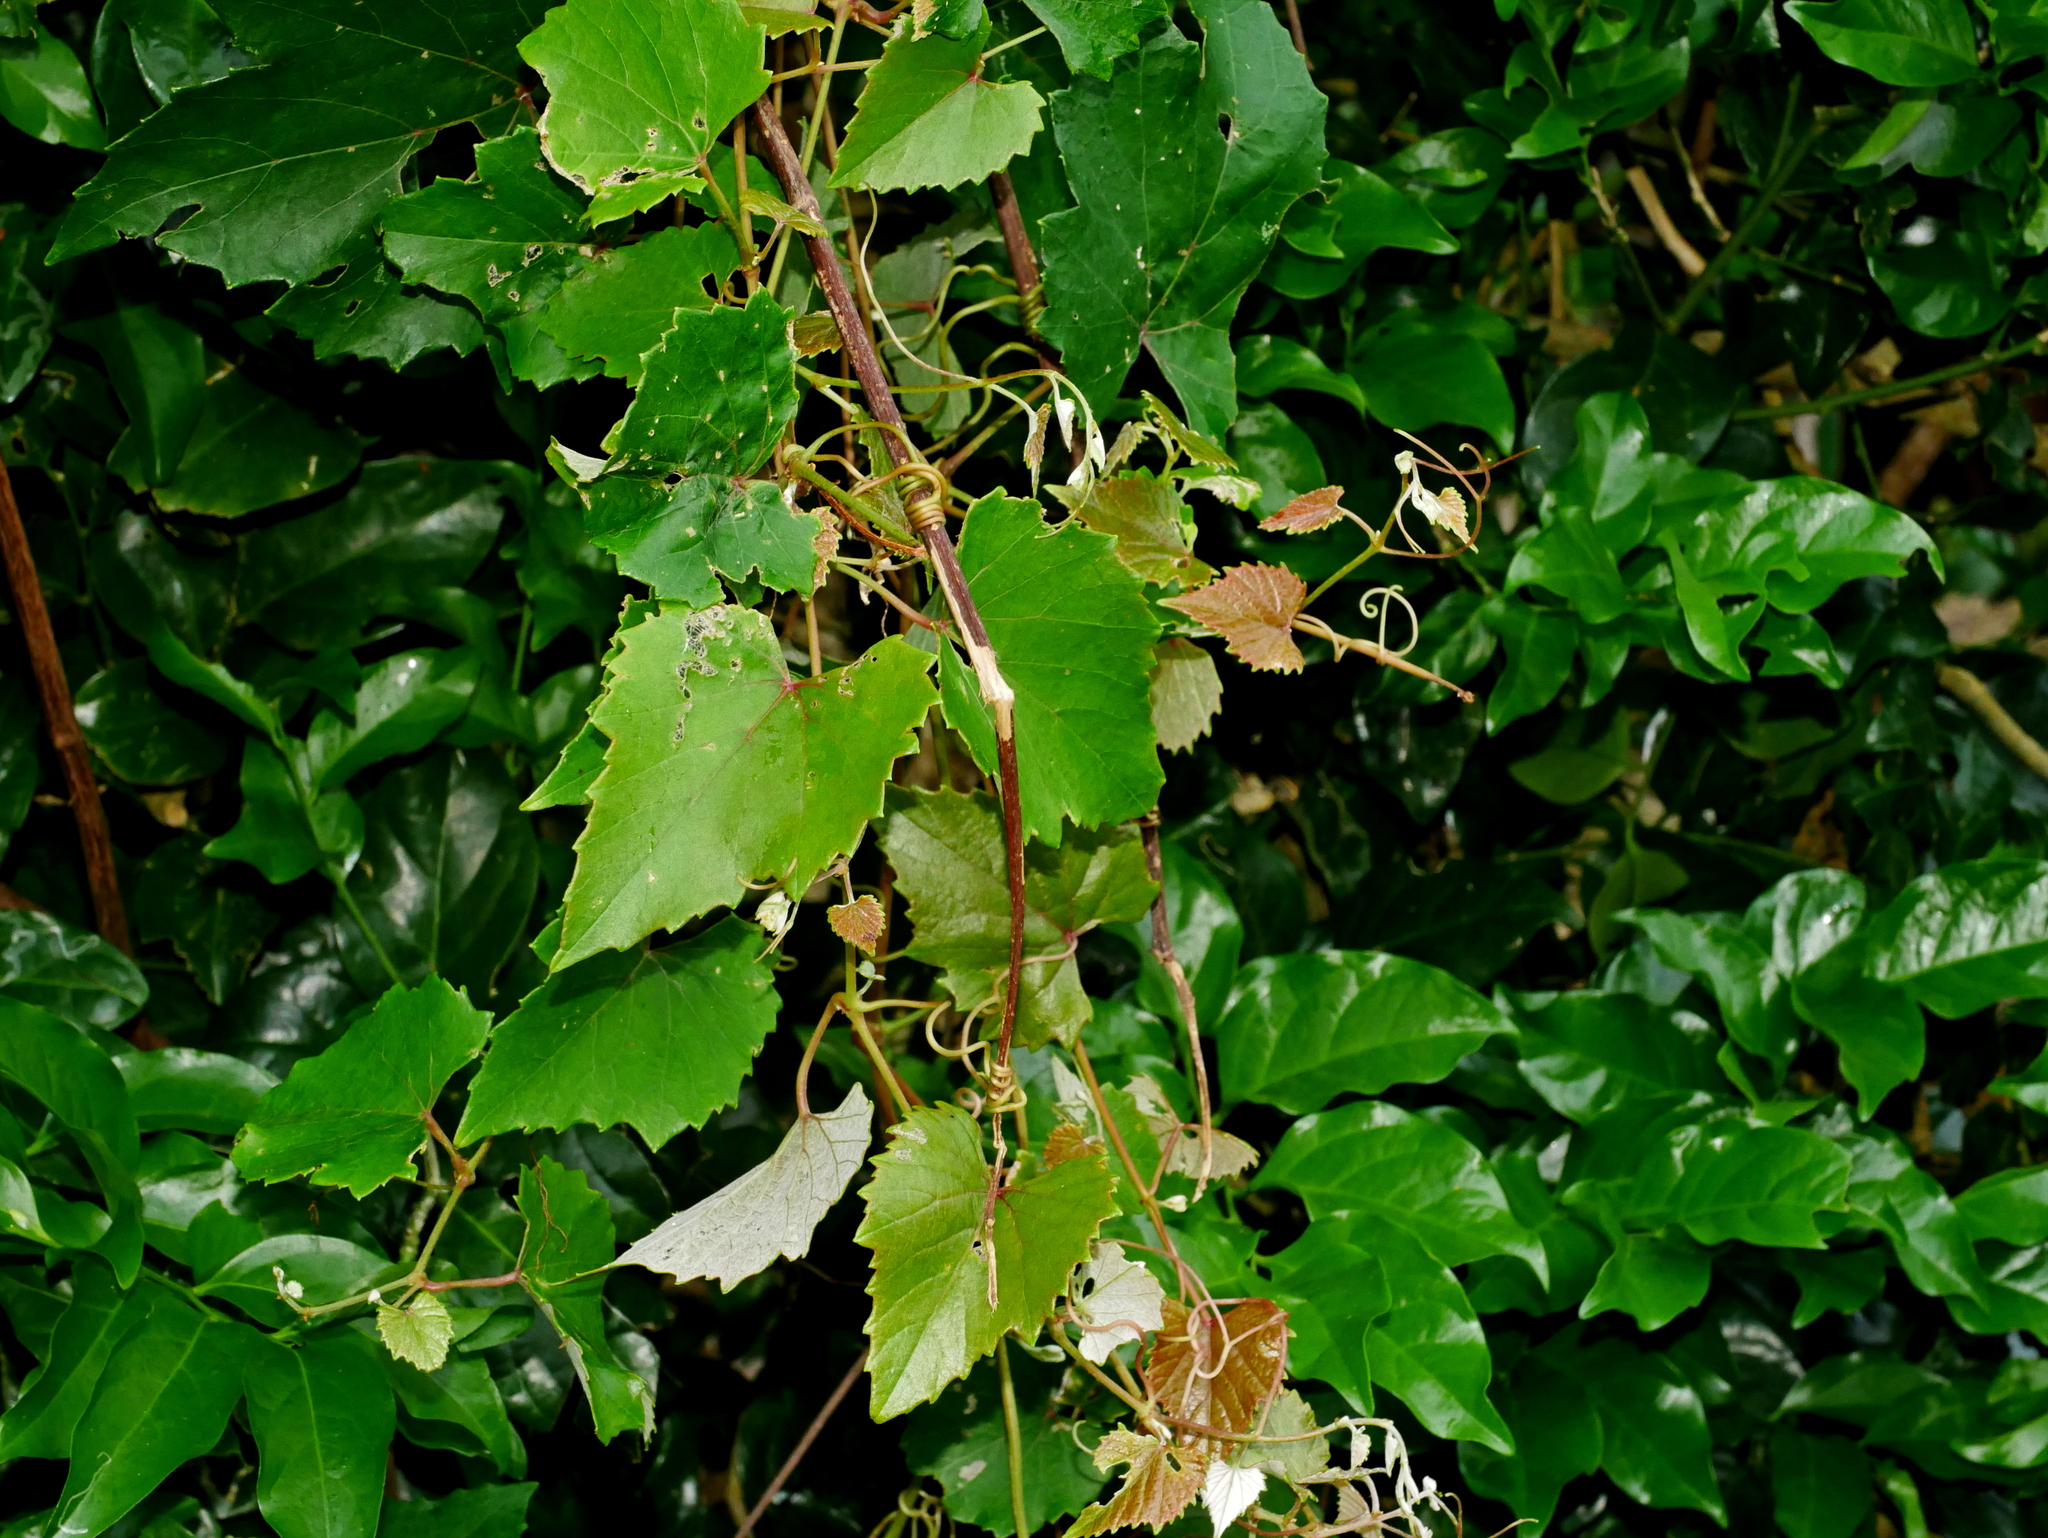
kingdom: Plantae
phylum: Tracheophyta
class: Magnoliopsida
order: Vitales
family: Vitaceae
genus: Vitis
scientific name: Vitis ficifolia
